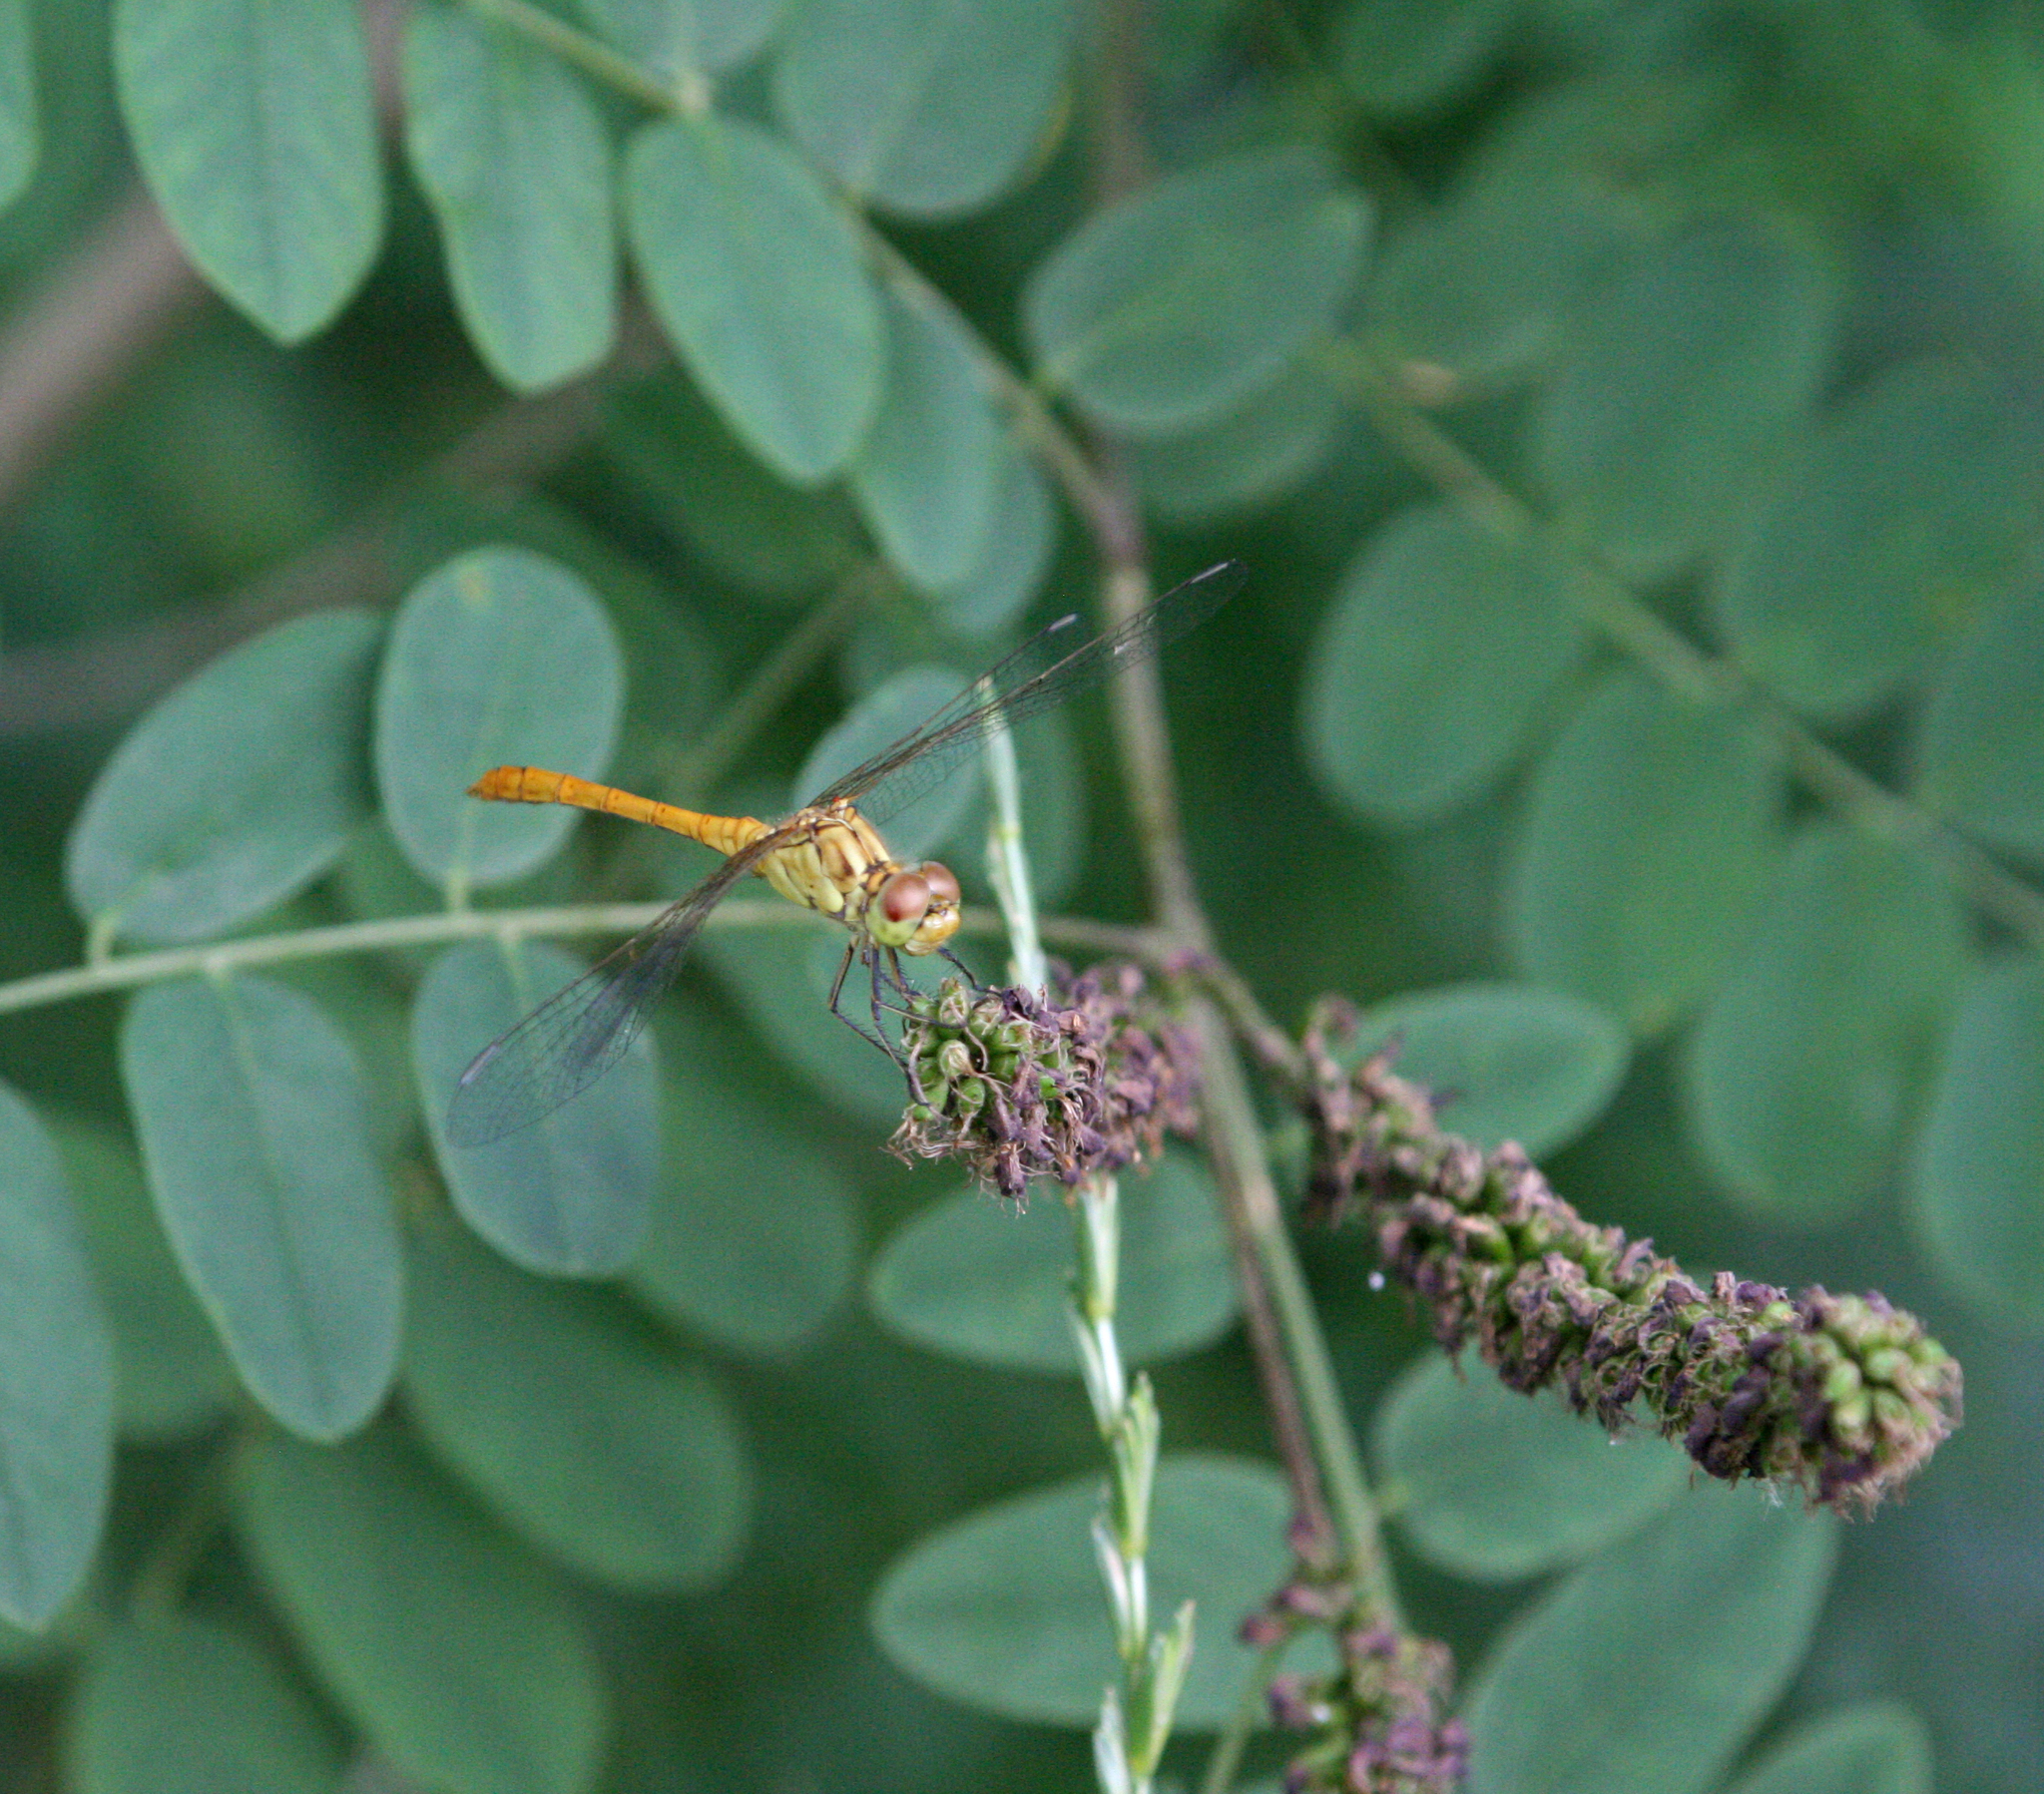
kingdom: Animalia
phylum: Arthropoda
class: Insecta
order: Odonata
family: Libellulidae
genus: Sympetrum
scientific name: Sympetrum meridionale
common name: Southern darter
